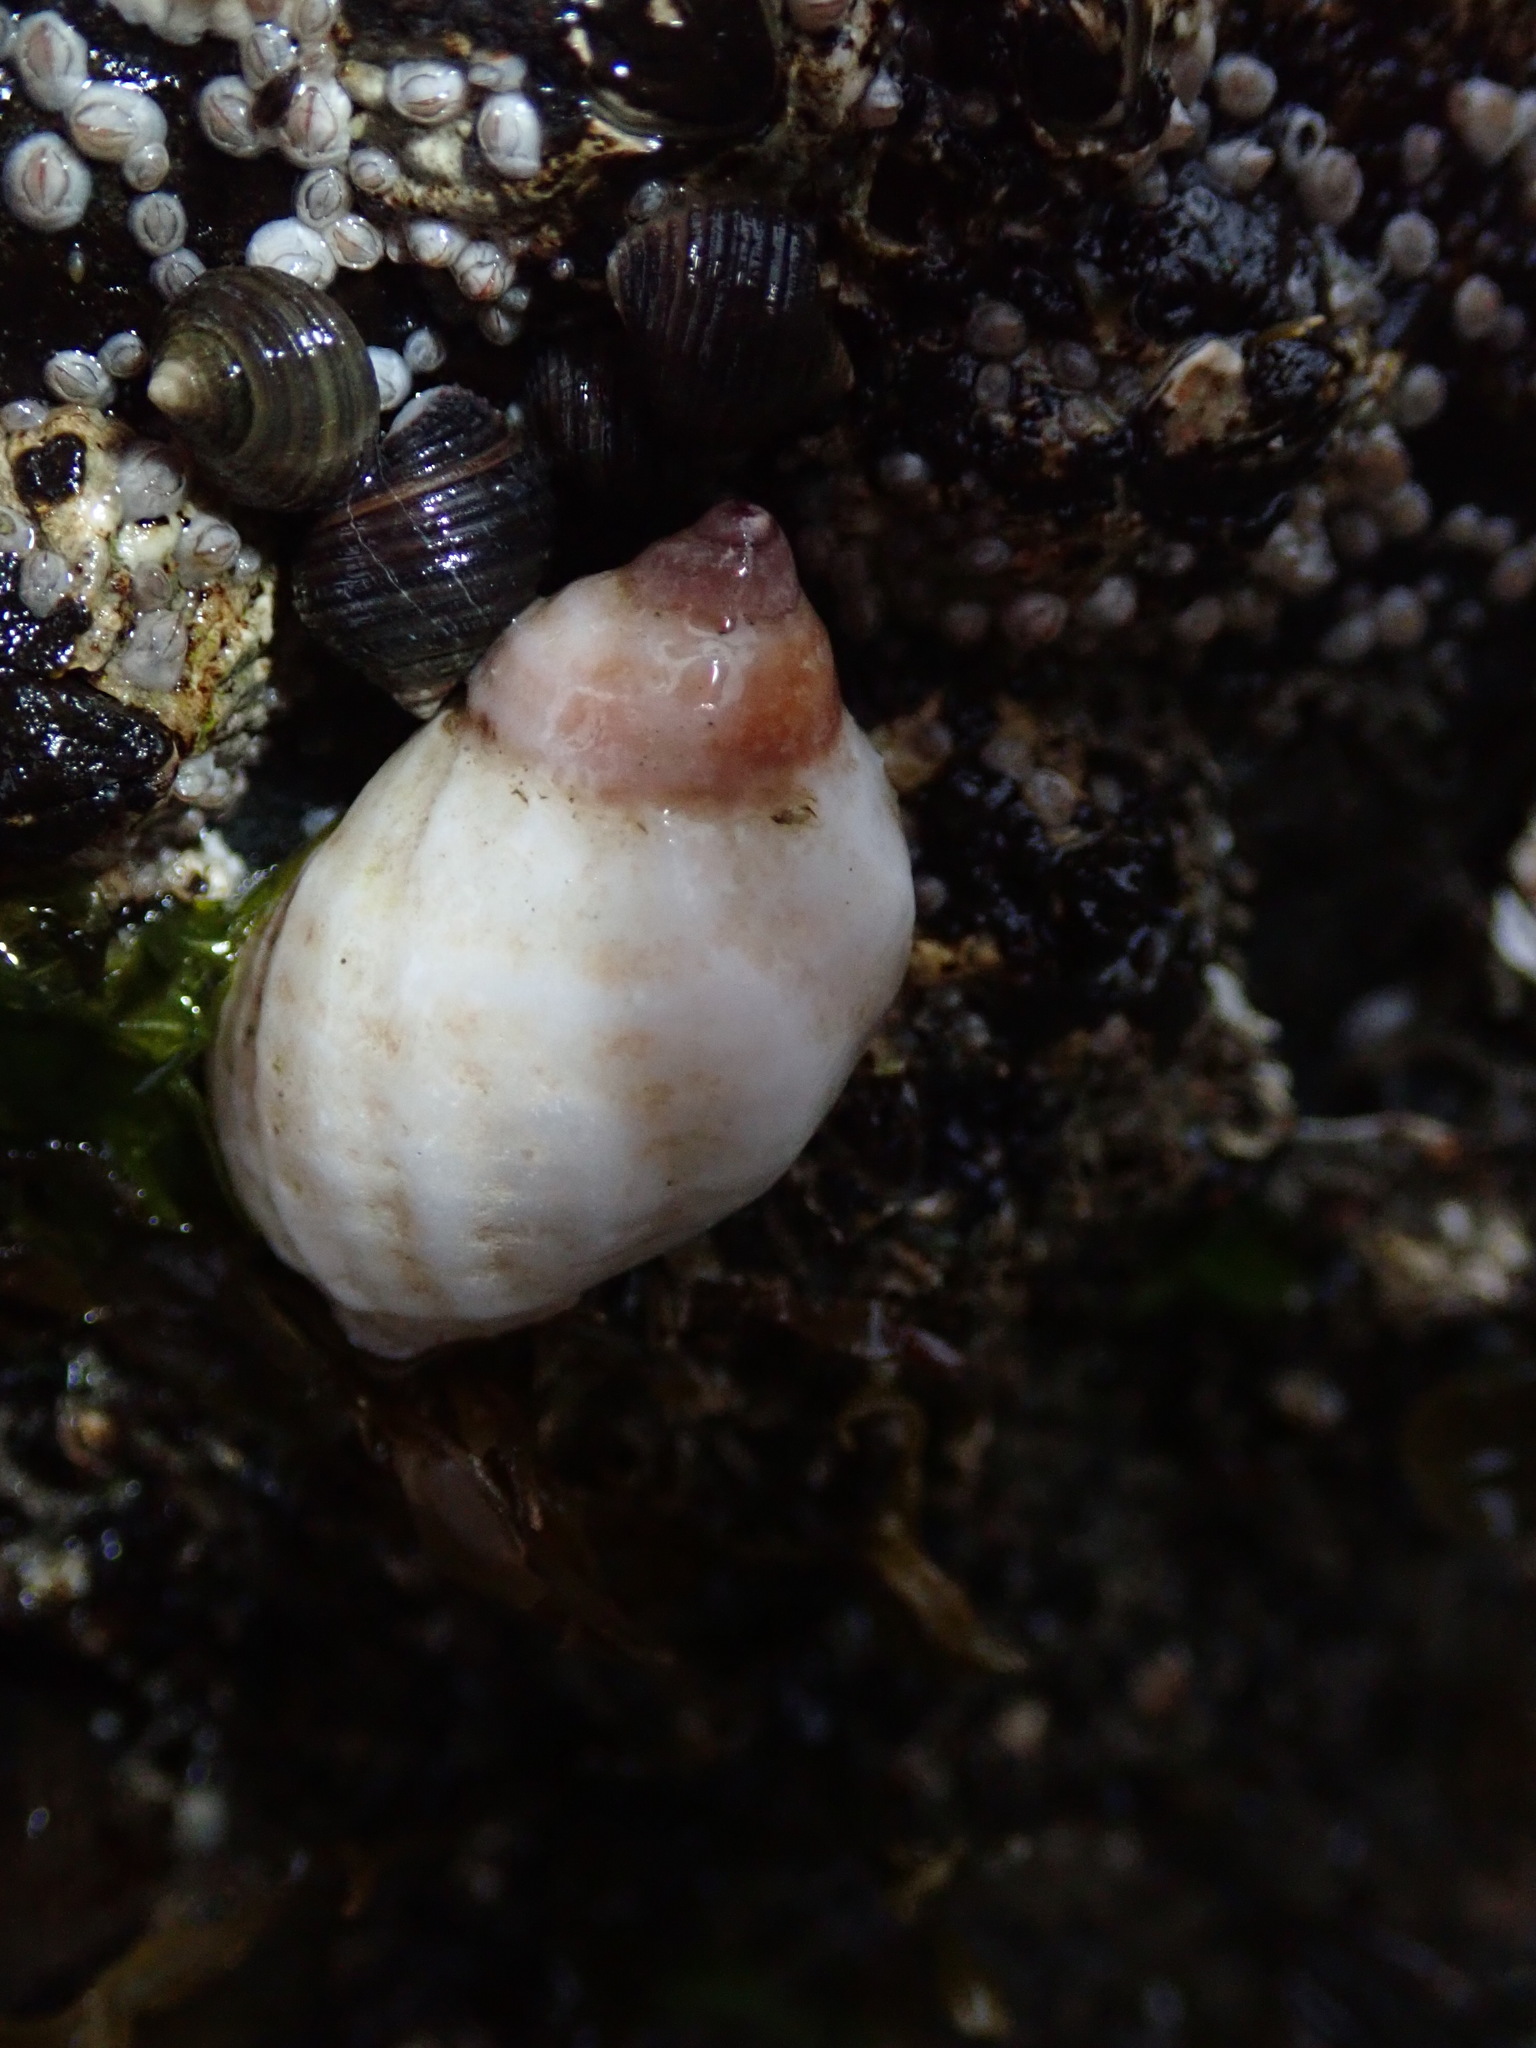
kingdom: Animalia
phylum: Mollusca
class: Gastropoda
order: Neogastropoda
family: Muricidae
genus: Nucella
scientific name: Nucella lapillus
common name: Dog whelk
